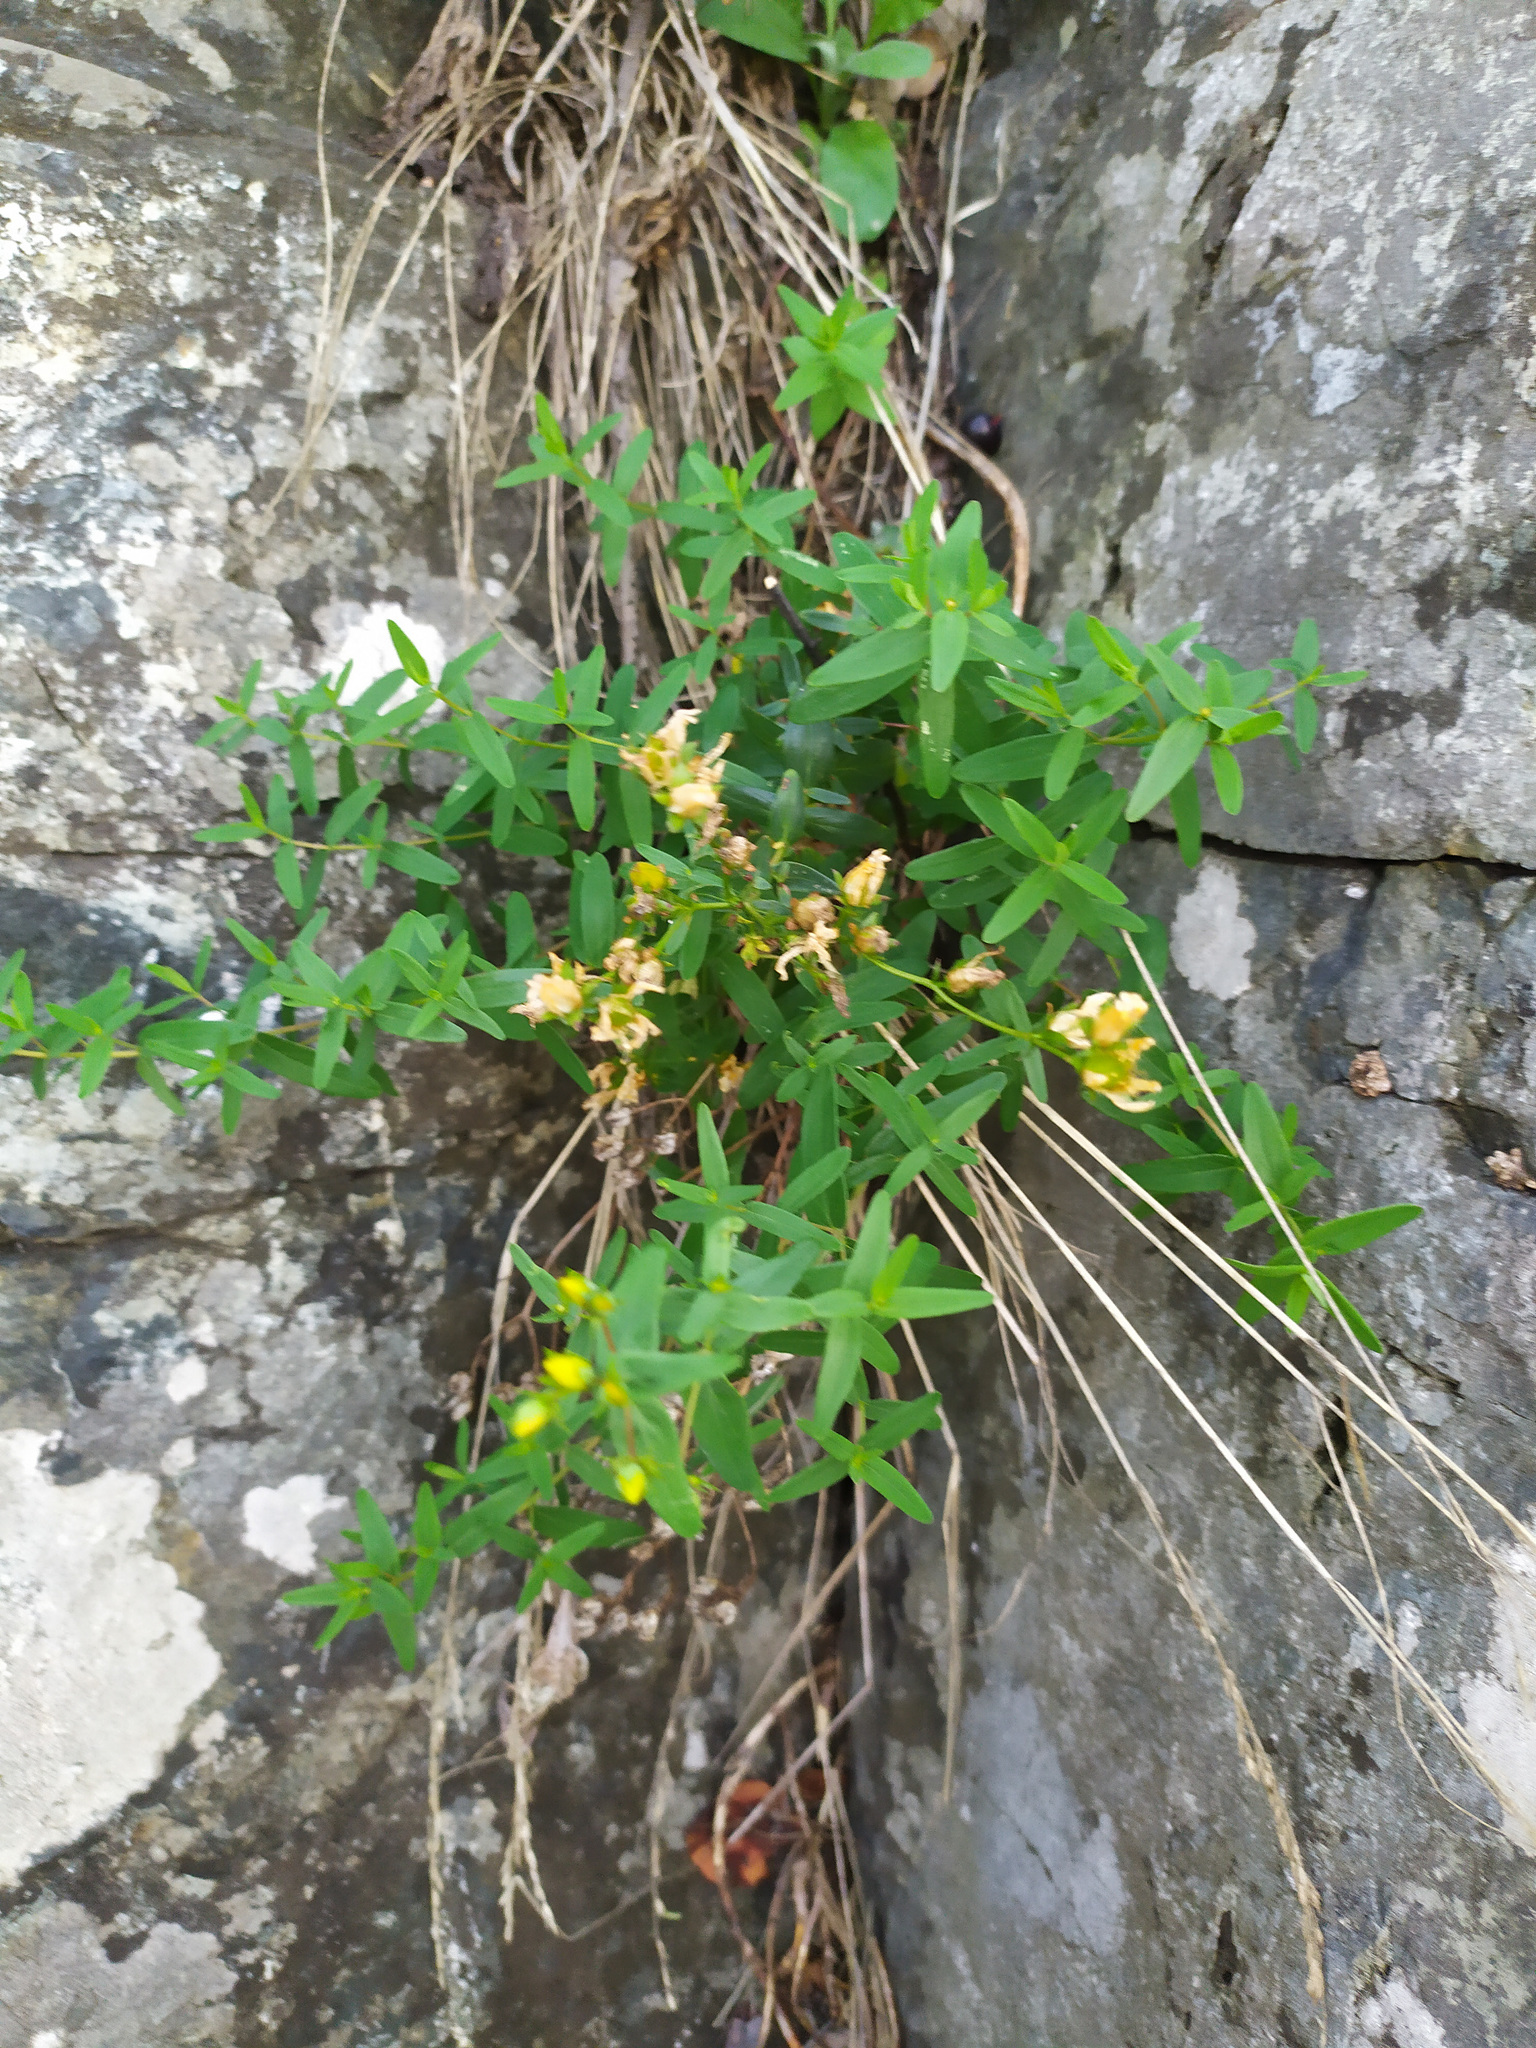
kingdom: Plantae
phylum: Tracheophyta
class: Magnoliopsida
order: Malpighiales
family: Hypericaceae
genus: Hypericum
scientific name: Hypericum elegans
